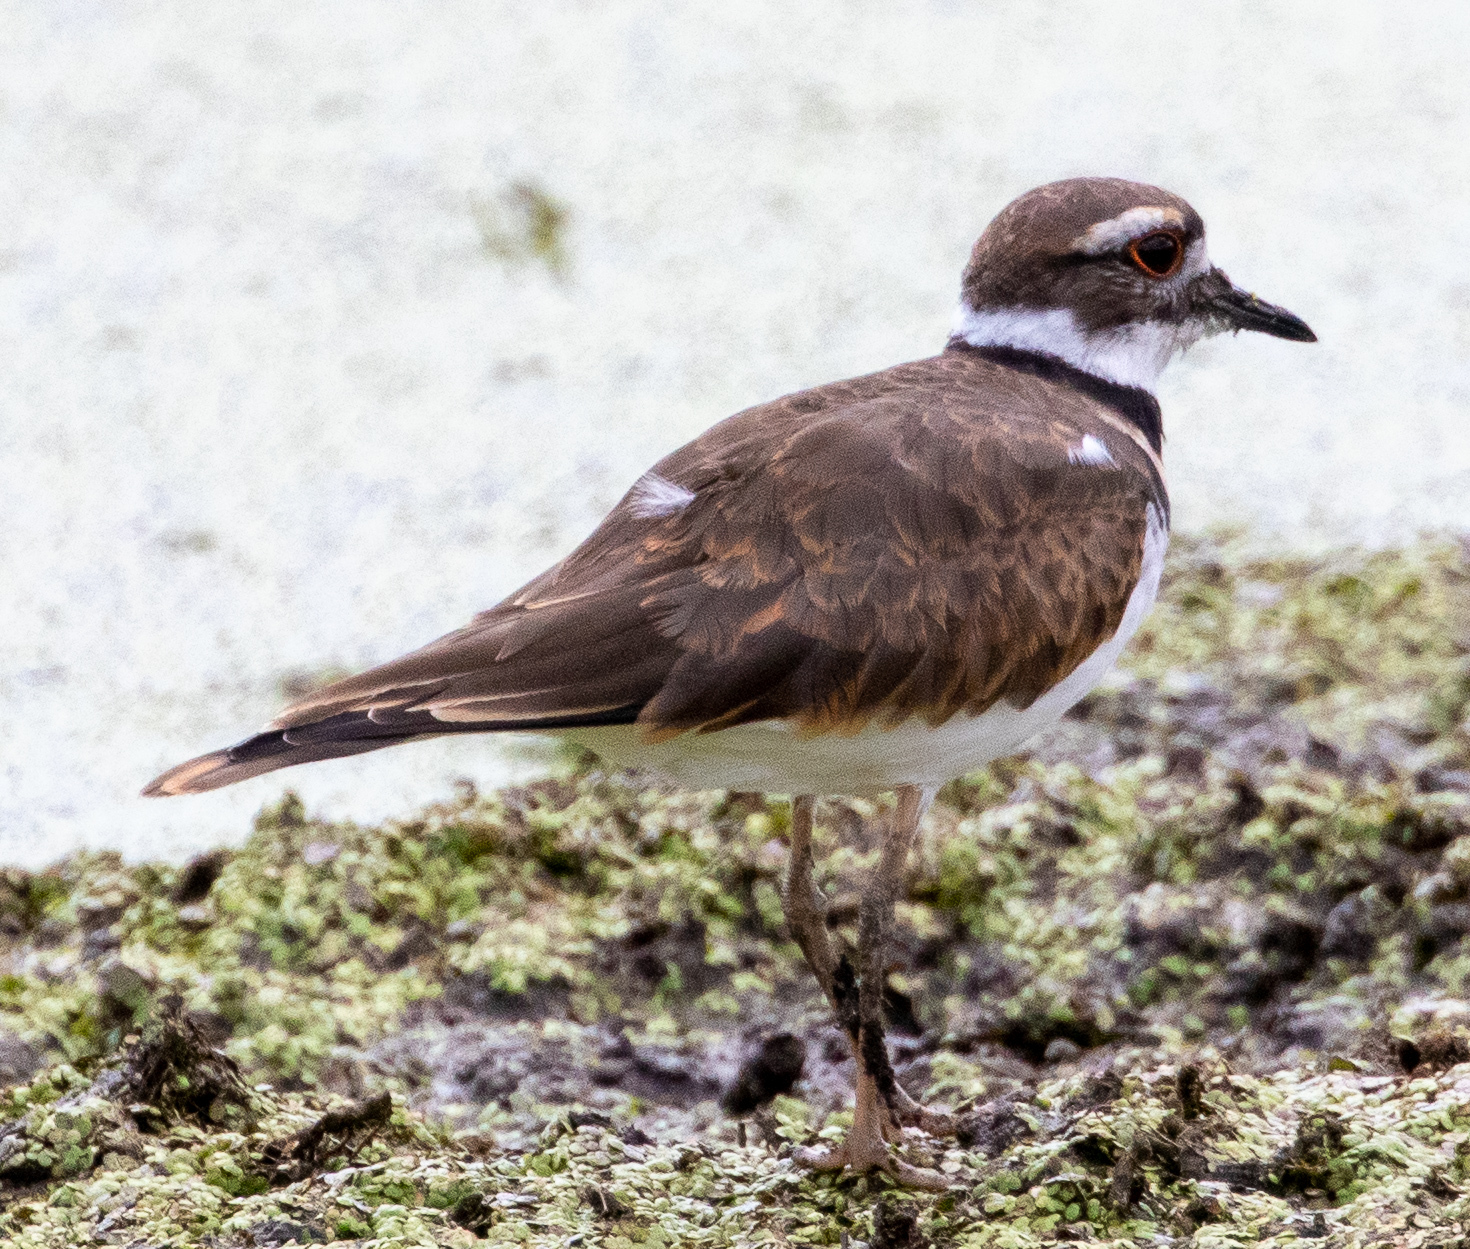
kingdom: Animalia
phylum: Chordata
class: Aves
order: Charadriiformes
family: Charadriidae
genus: Charadrius
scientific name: Charadrius vociferus
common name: Killdeer
